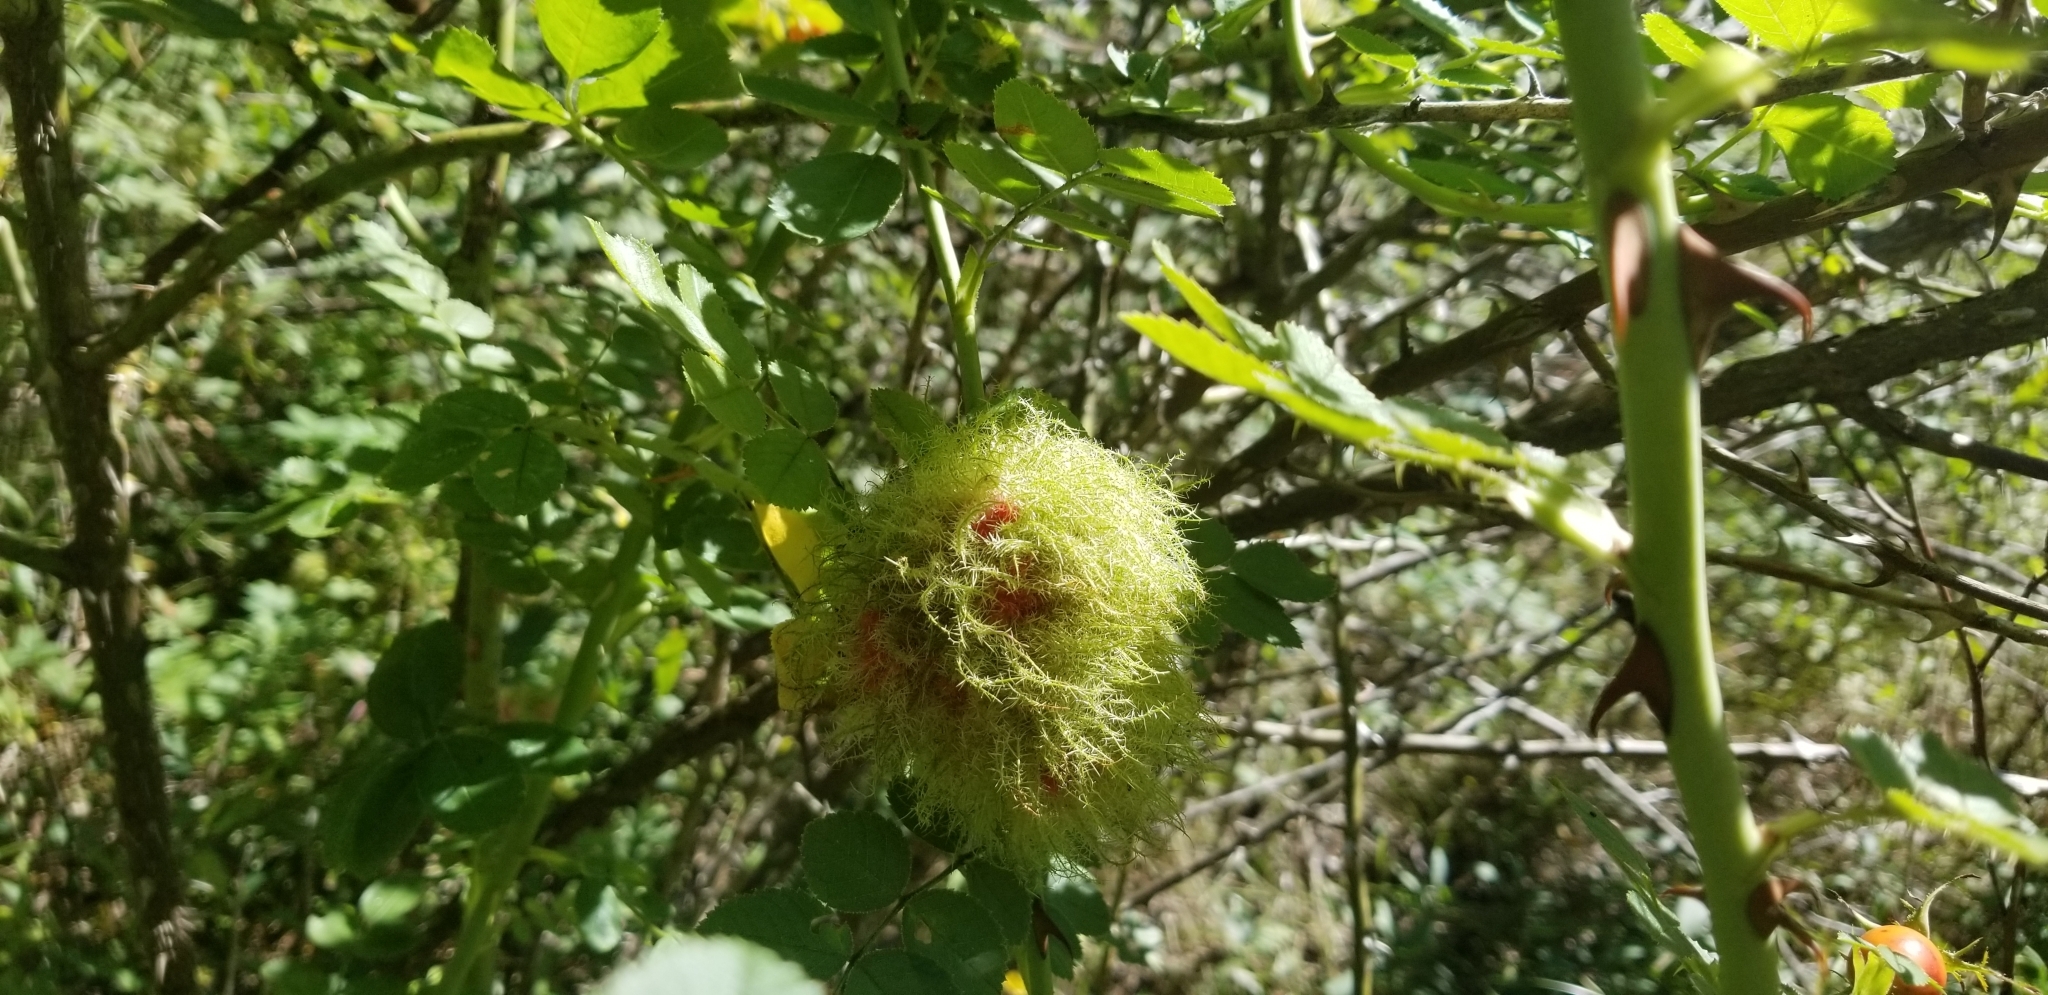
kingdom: Animalia
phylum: Arthropoda
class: Insecta
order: Hymenoptera
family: Cynipidae
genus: Diplolepis
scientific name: Diplolepis rosae
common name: Bedeguar gall
